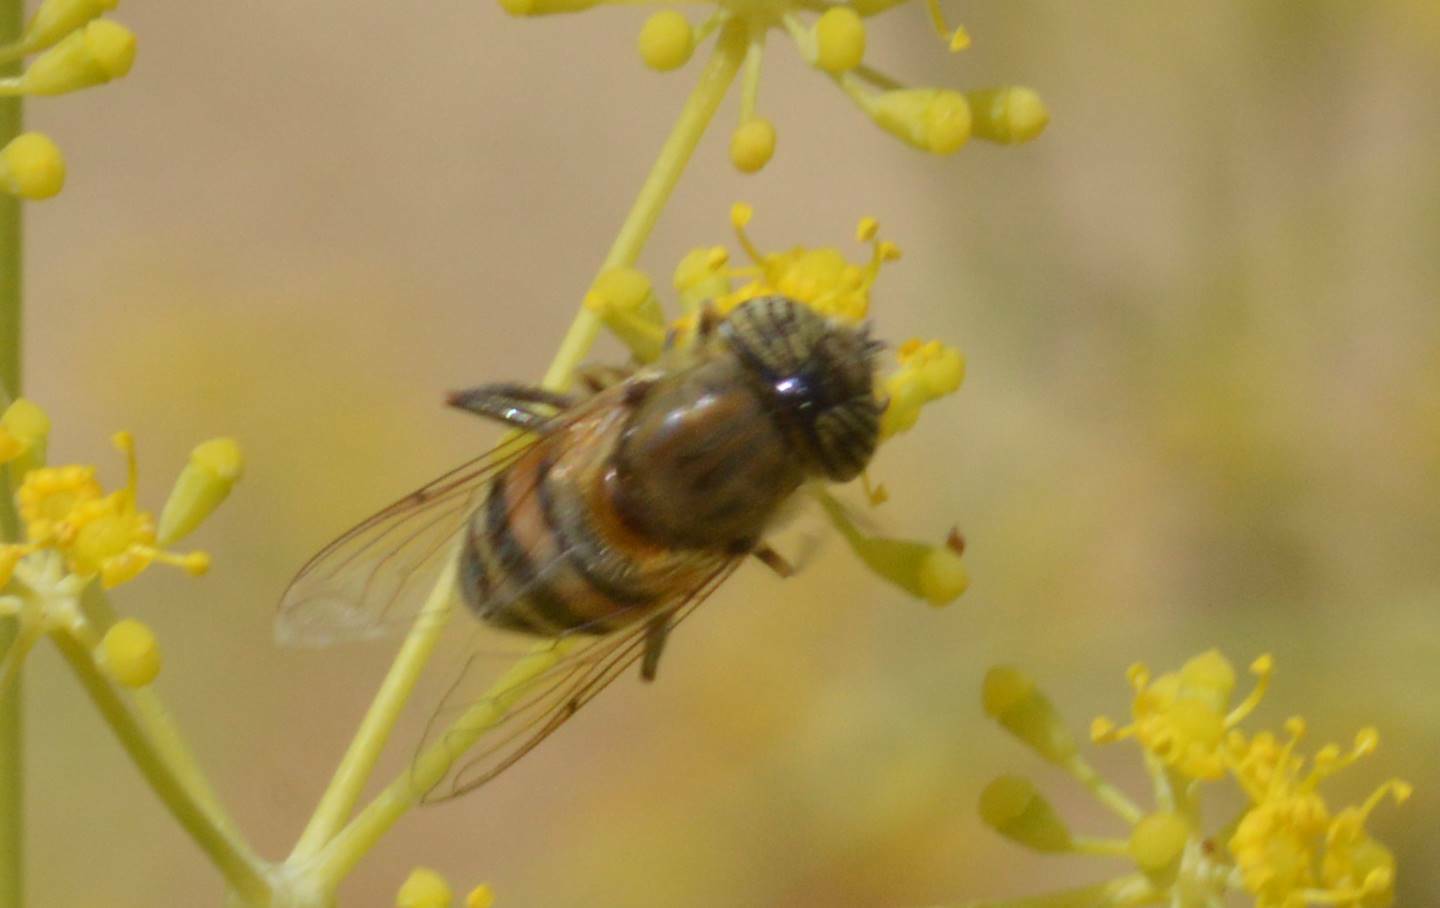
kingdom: Animalia
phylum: Arthropoda
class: Insecta
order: Diptera
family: Syrphidae
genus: Eristalinus
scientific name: Eristalinus taeniops
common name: Syrphid fly
